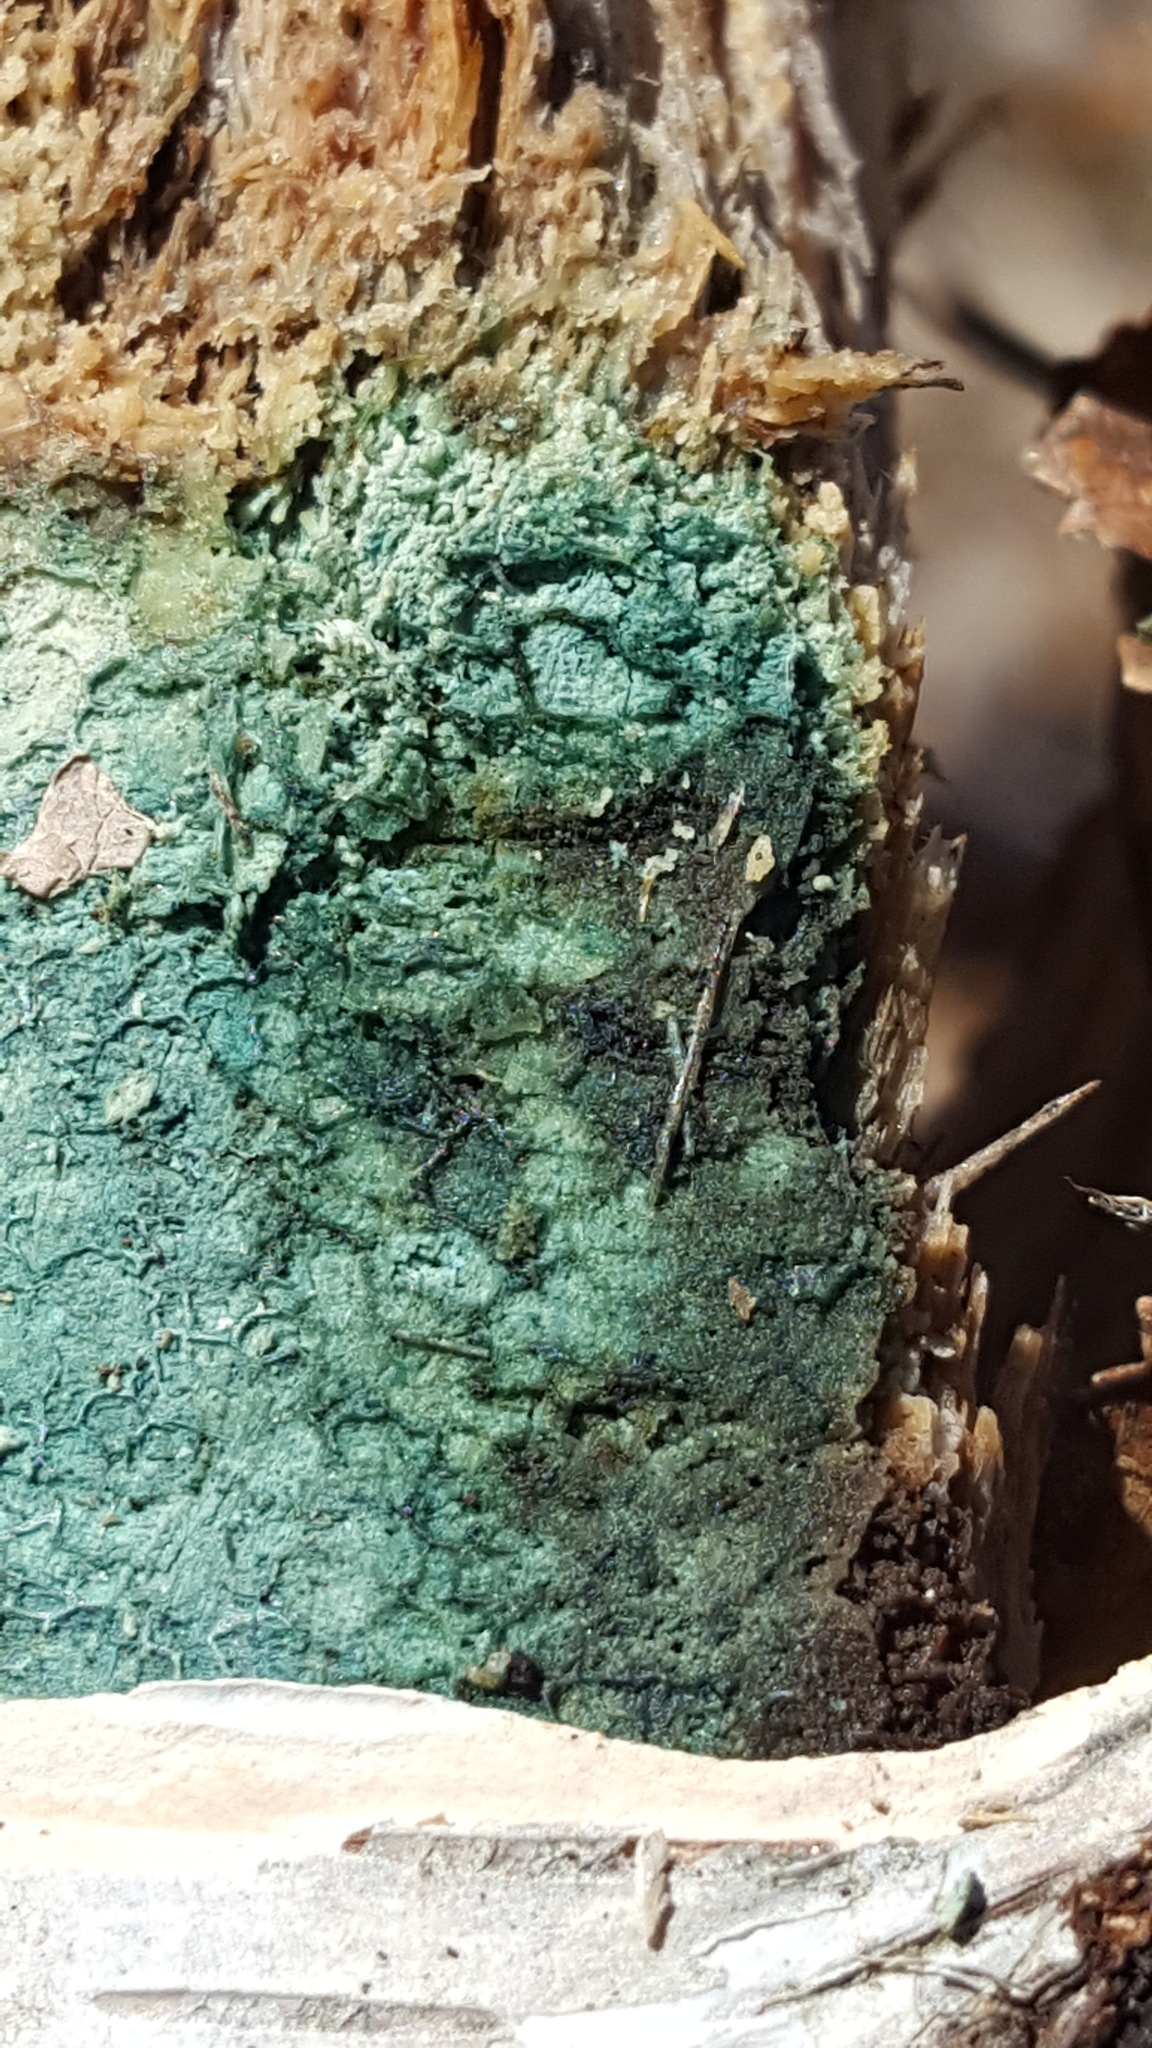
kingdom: Fungi
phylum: Ascomycota
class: Leotiomycetes
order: Helotiales
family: Chlorociboriaceae
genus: Chlorociboria
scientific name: Chlorociboria
